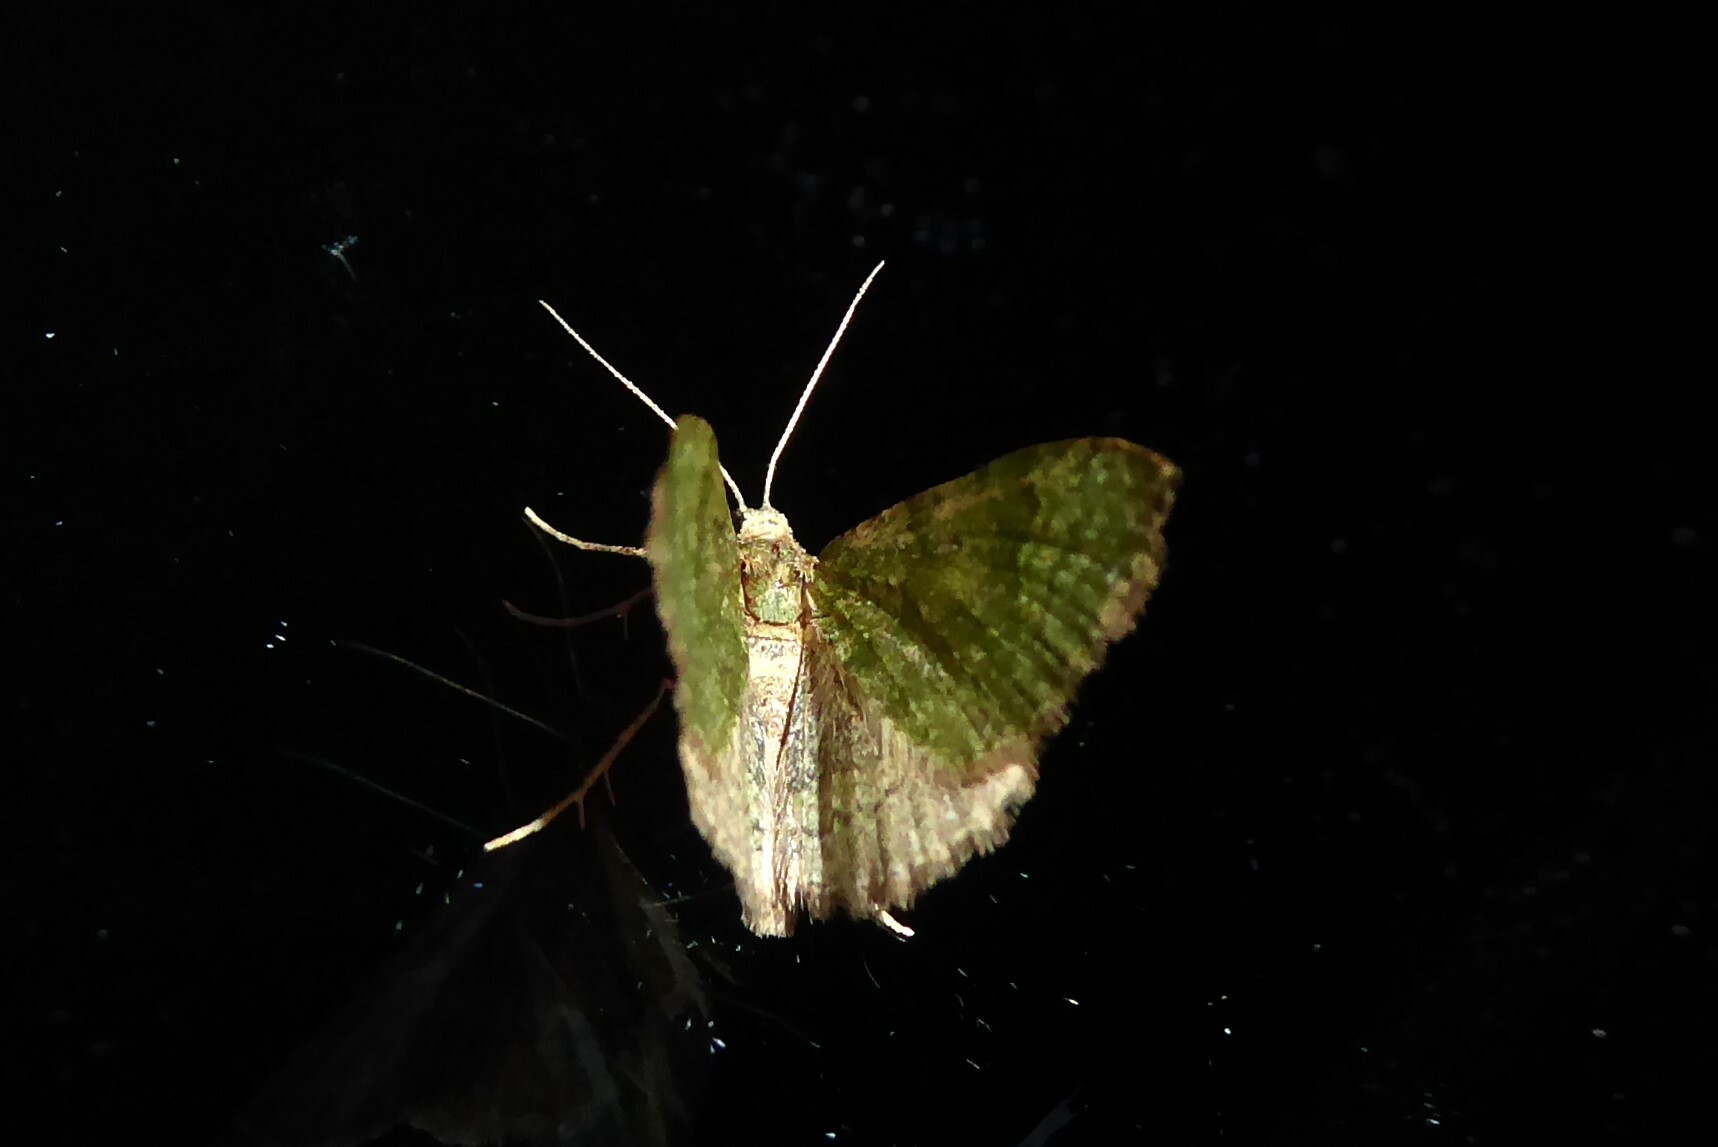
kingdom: Animalia
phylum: Arthropoda
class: Insecta
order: Lepidoptera
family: Geometridae
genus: Epyaxa
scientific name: Epyaxa rosearia
